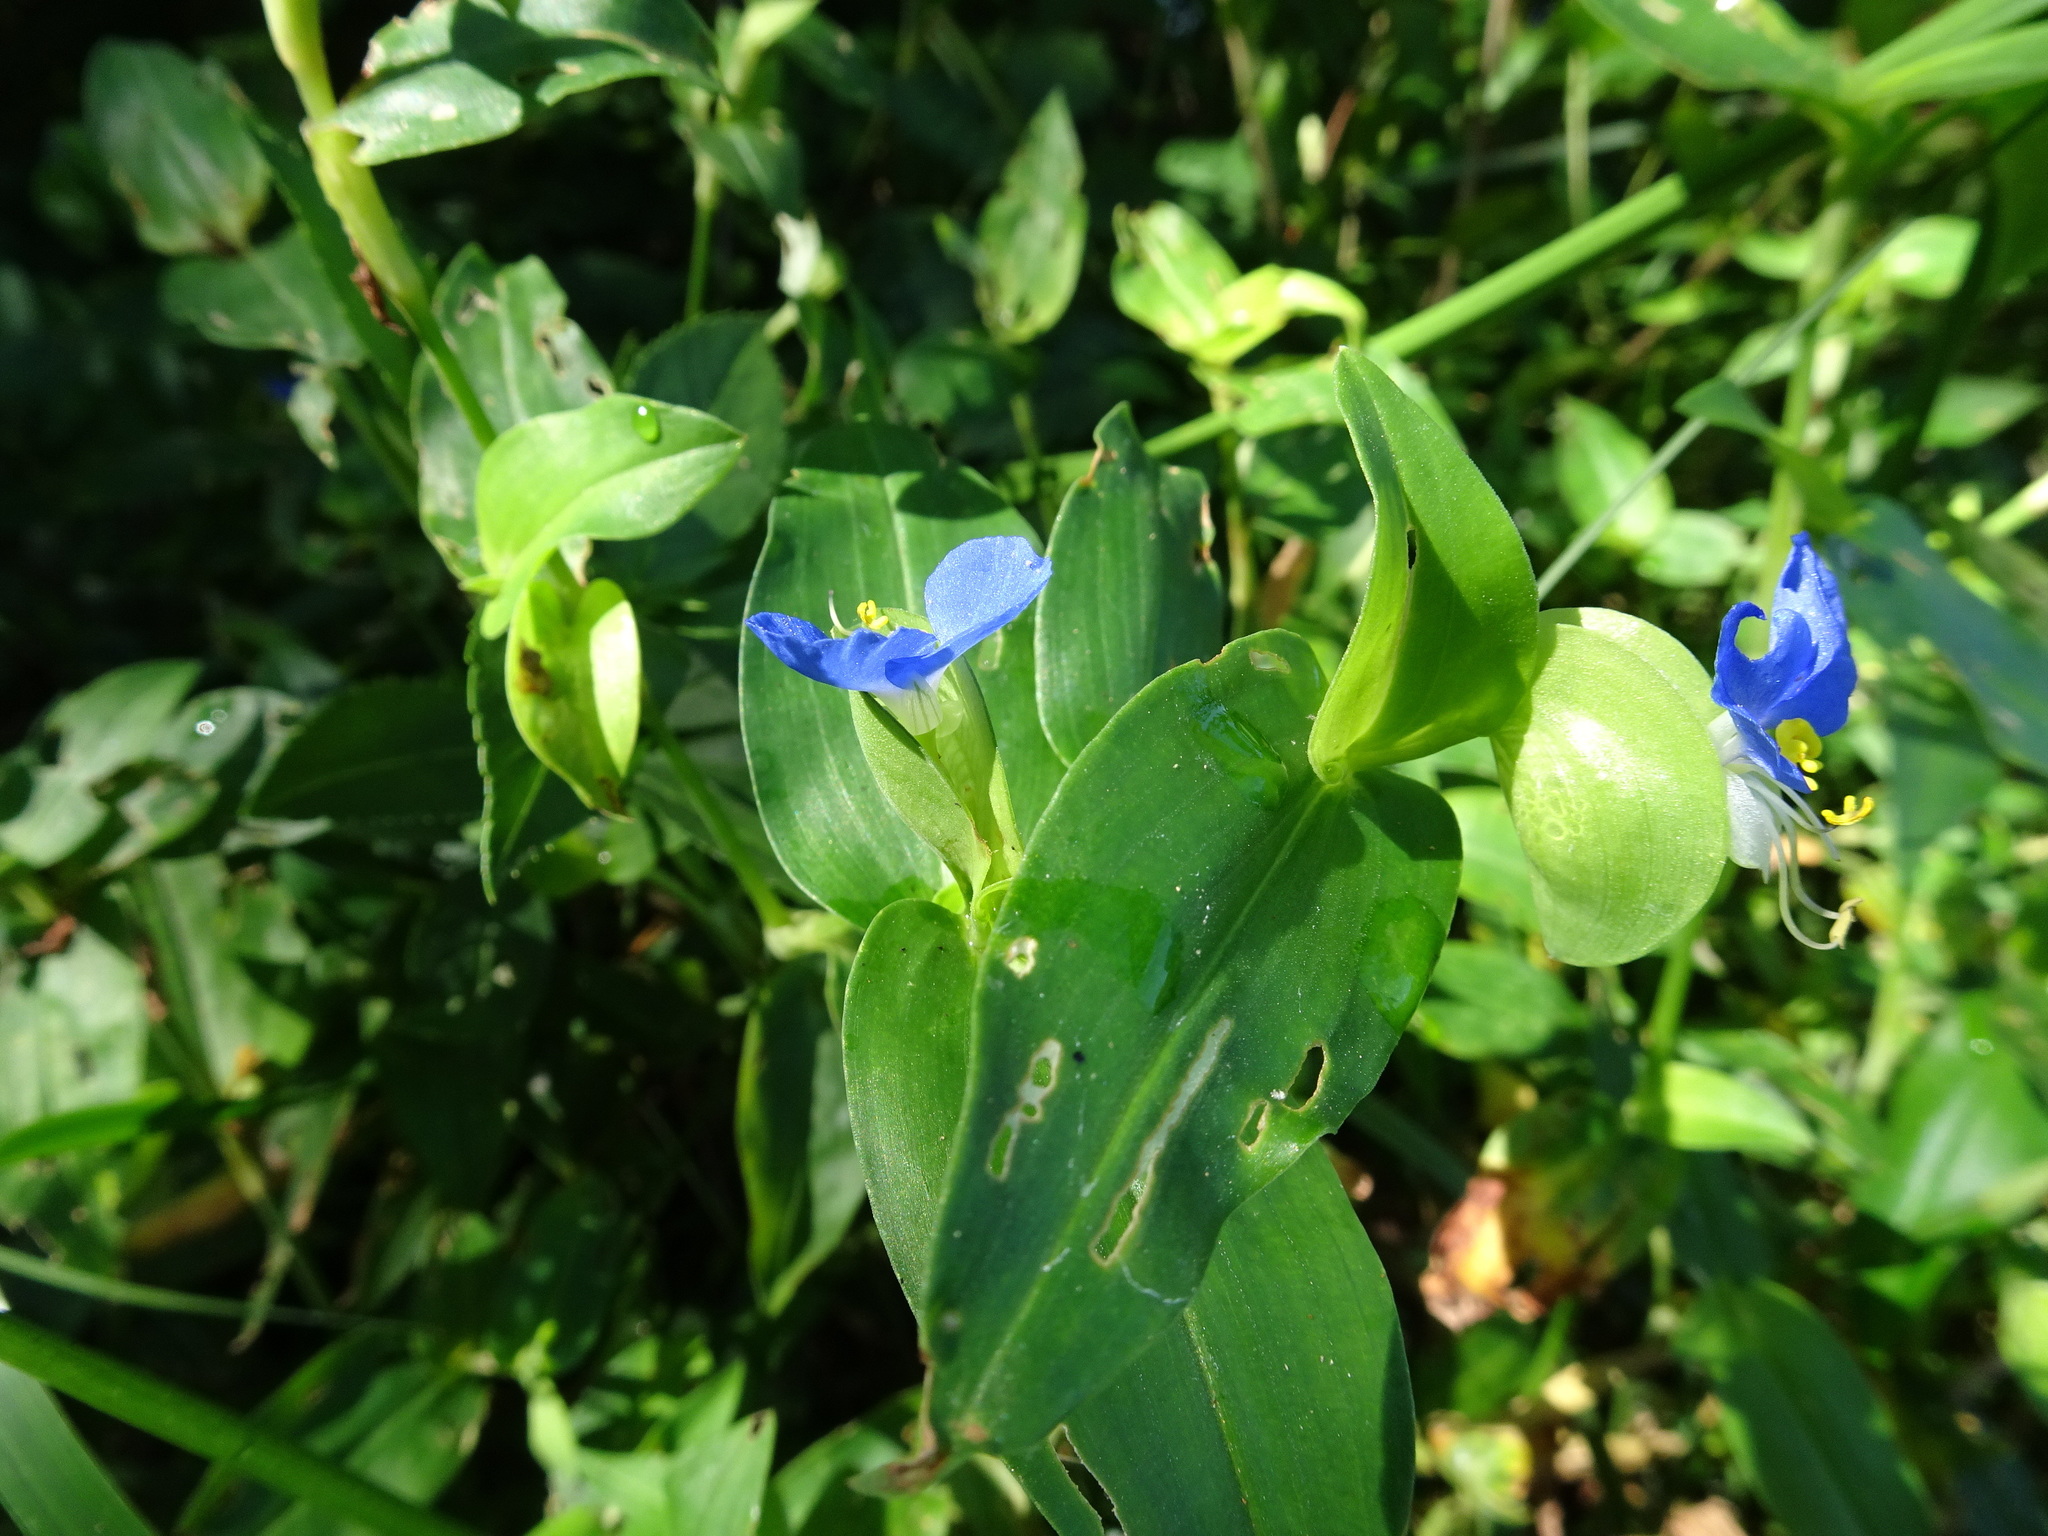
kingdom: Plantae
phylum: Tracheophyta
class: Liliopsida
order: Commelinales
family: Commelinaceae
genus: Commelina
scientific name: Commelina communis
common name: Asiatic dayflower
